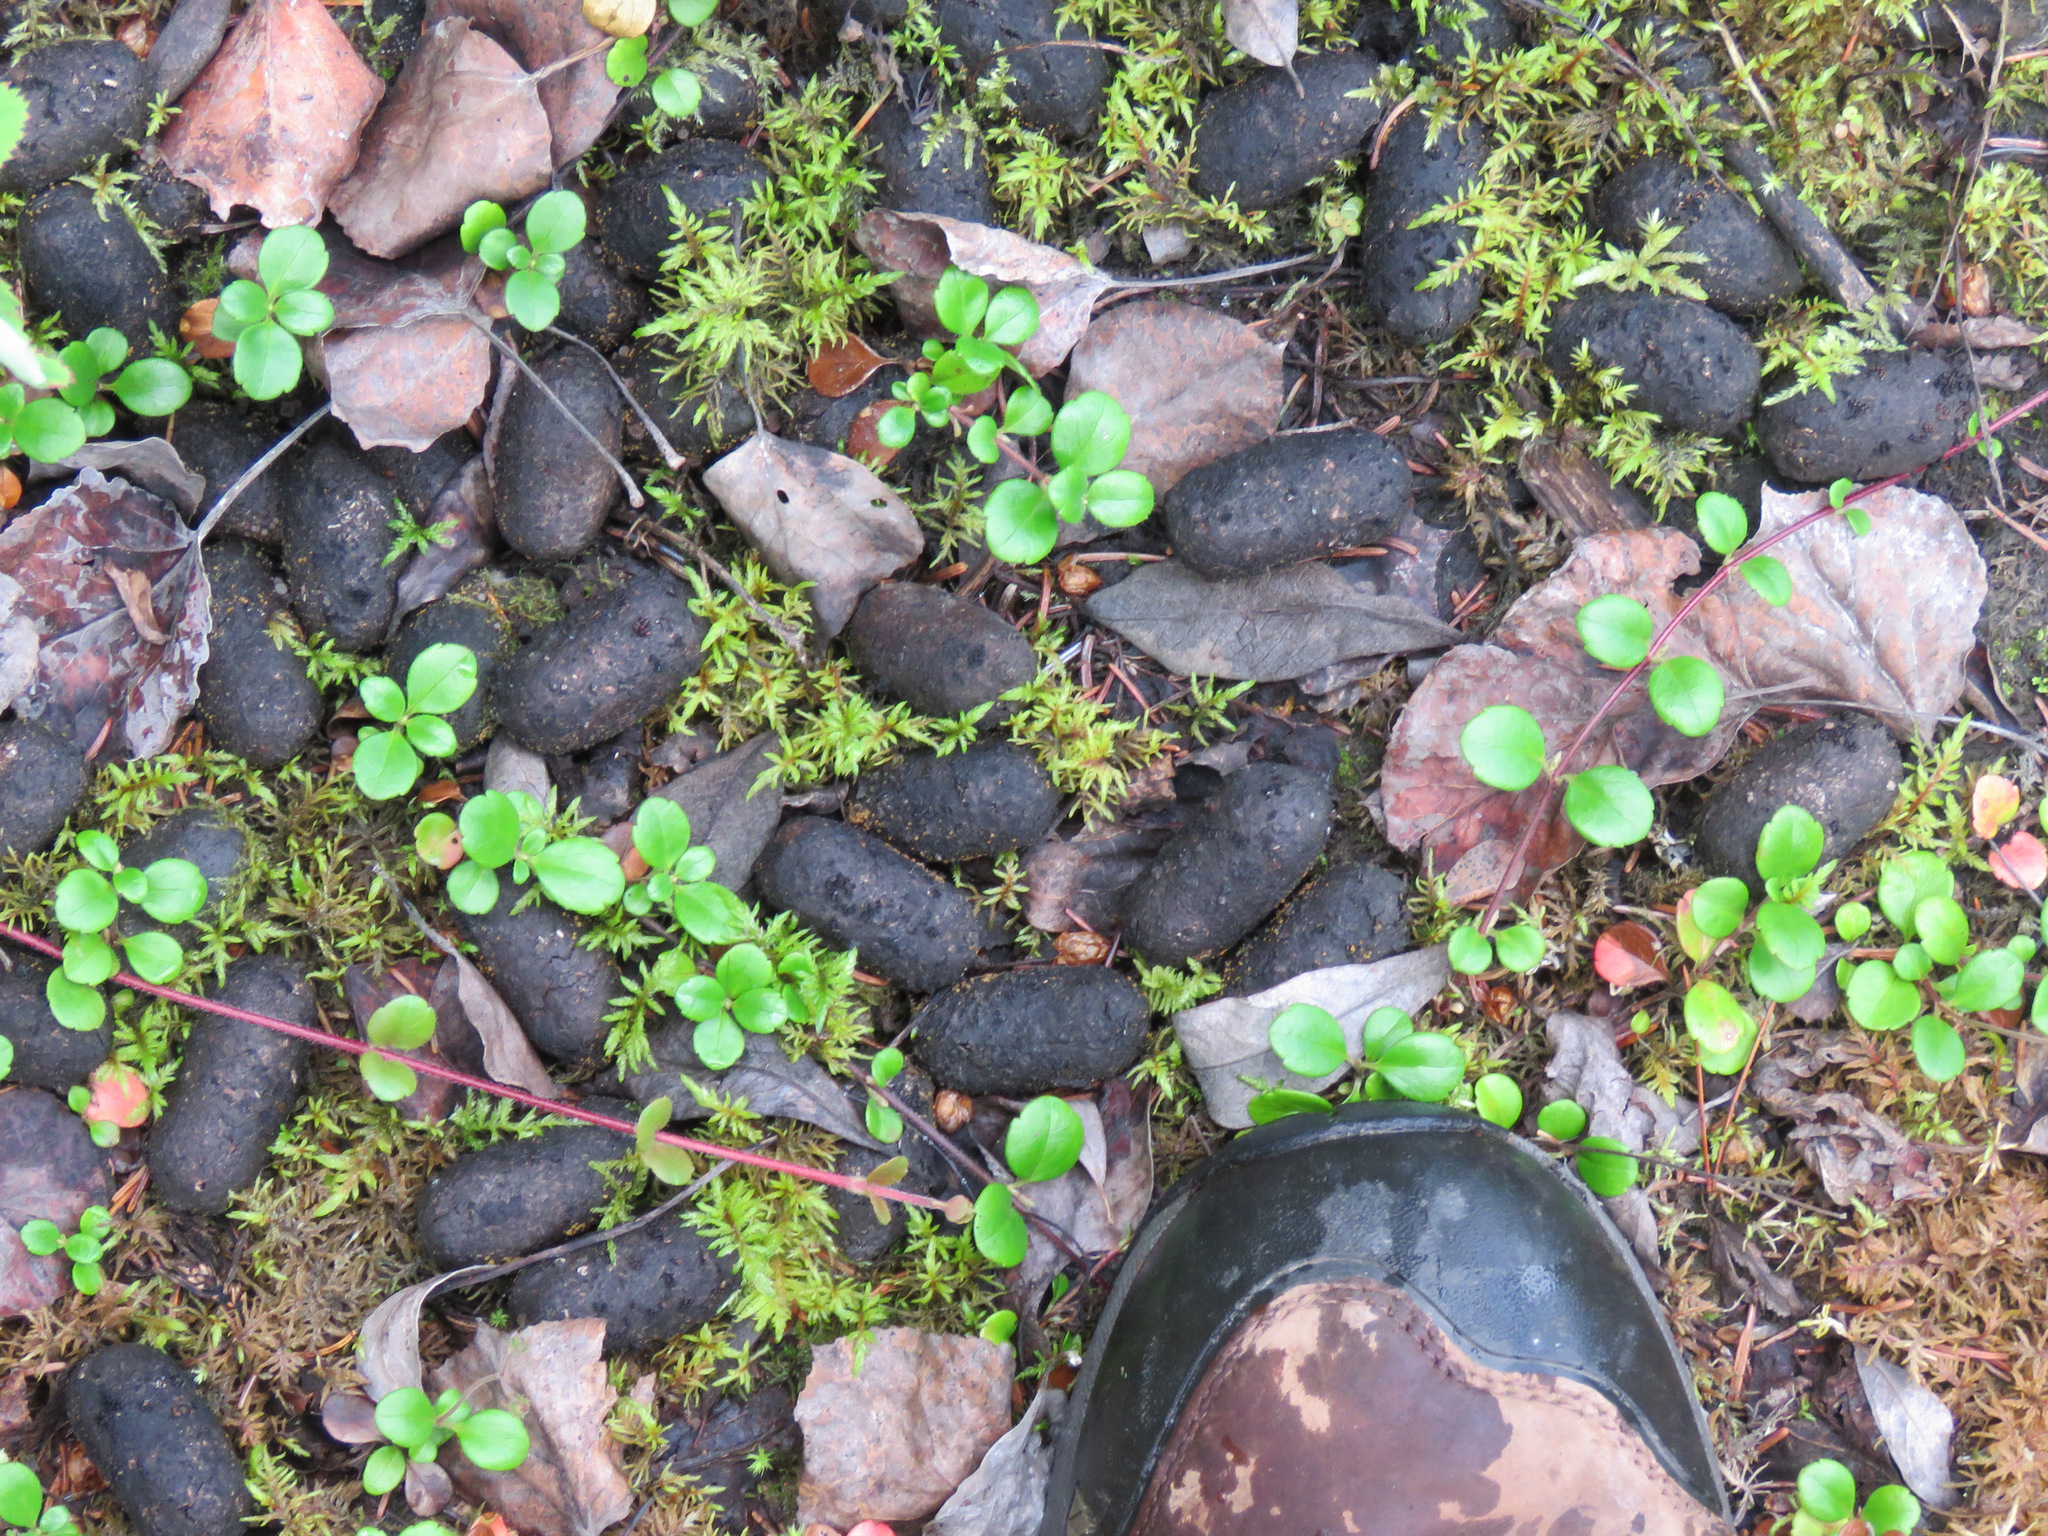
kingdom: Animalia
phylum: Chordata
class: Mammalia
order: Artiodactyla
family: Cervidae
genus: Alces
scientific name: Alces alces
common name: Moose
